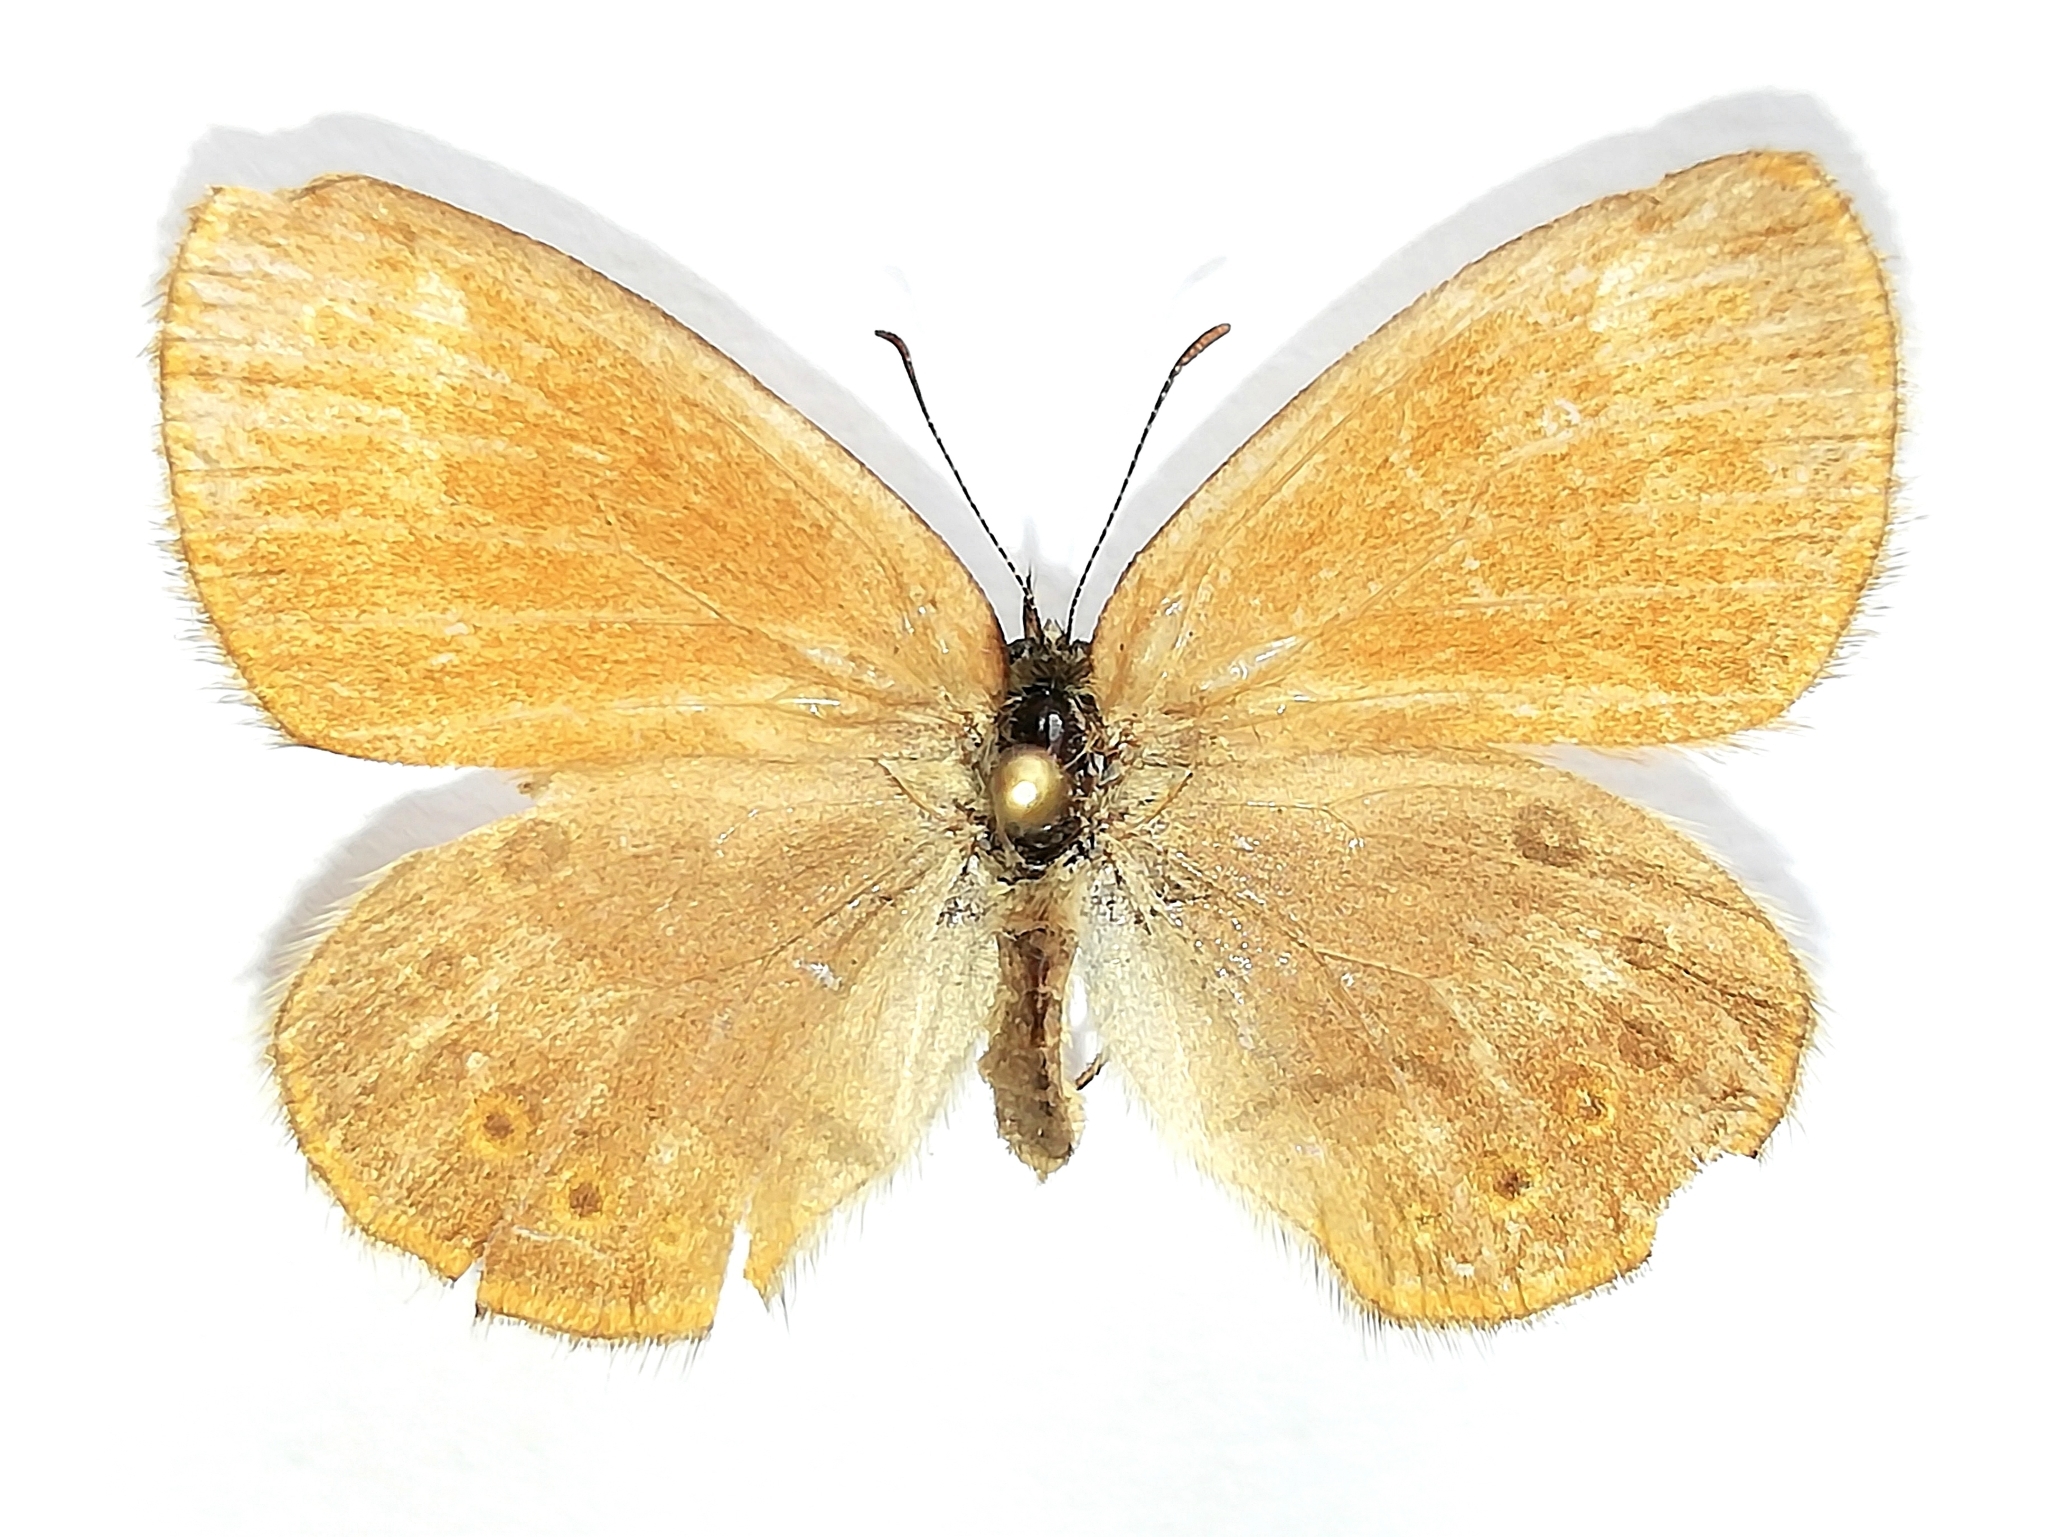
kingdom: Animalia
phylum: Arthropoda
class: Insecta
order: Lepidoptera
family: Nymphalidae
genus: Coenonympha
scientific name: Coenonympha iphis
